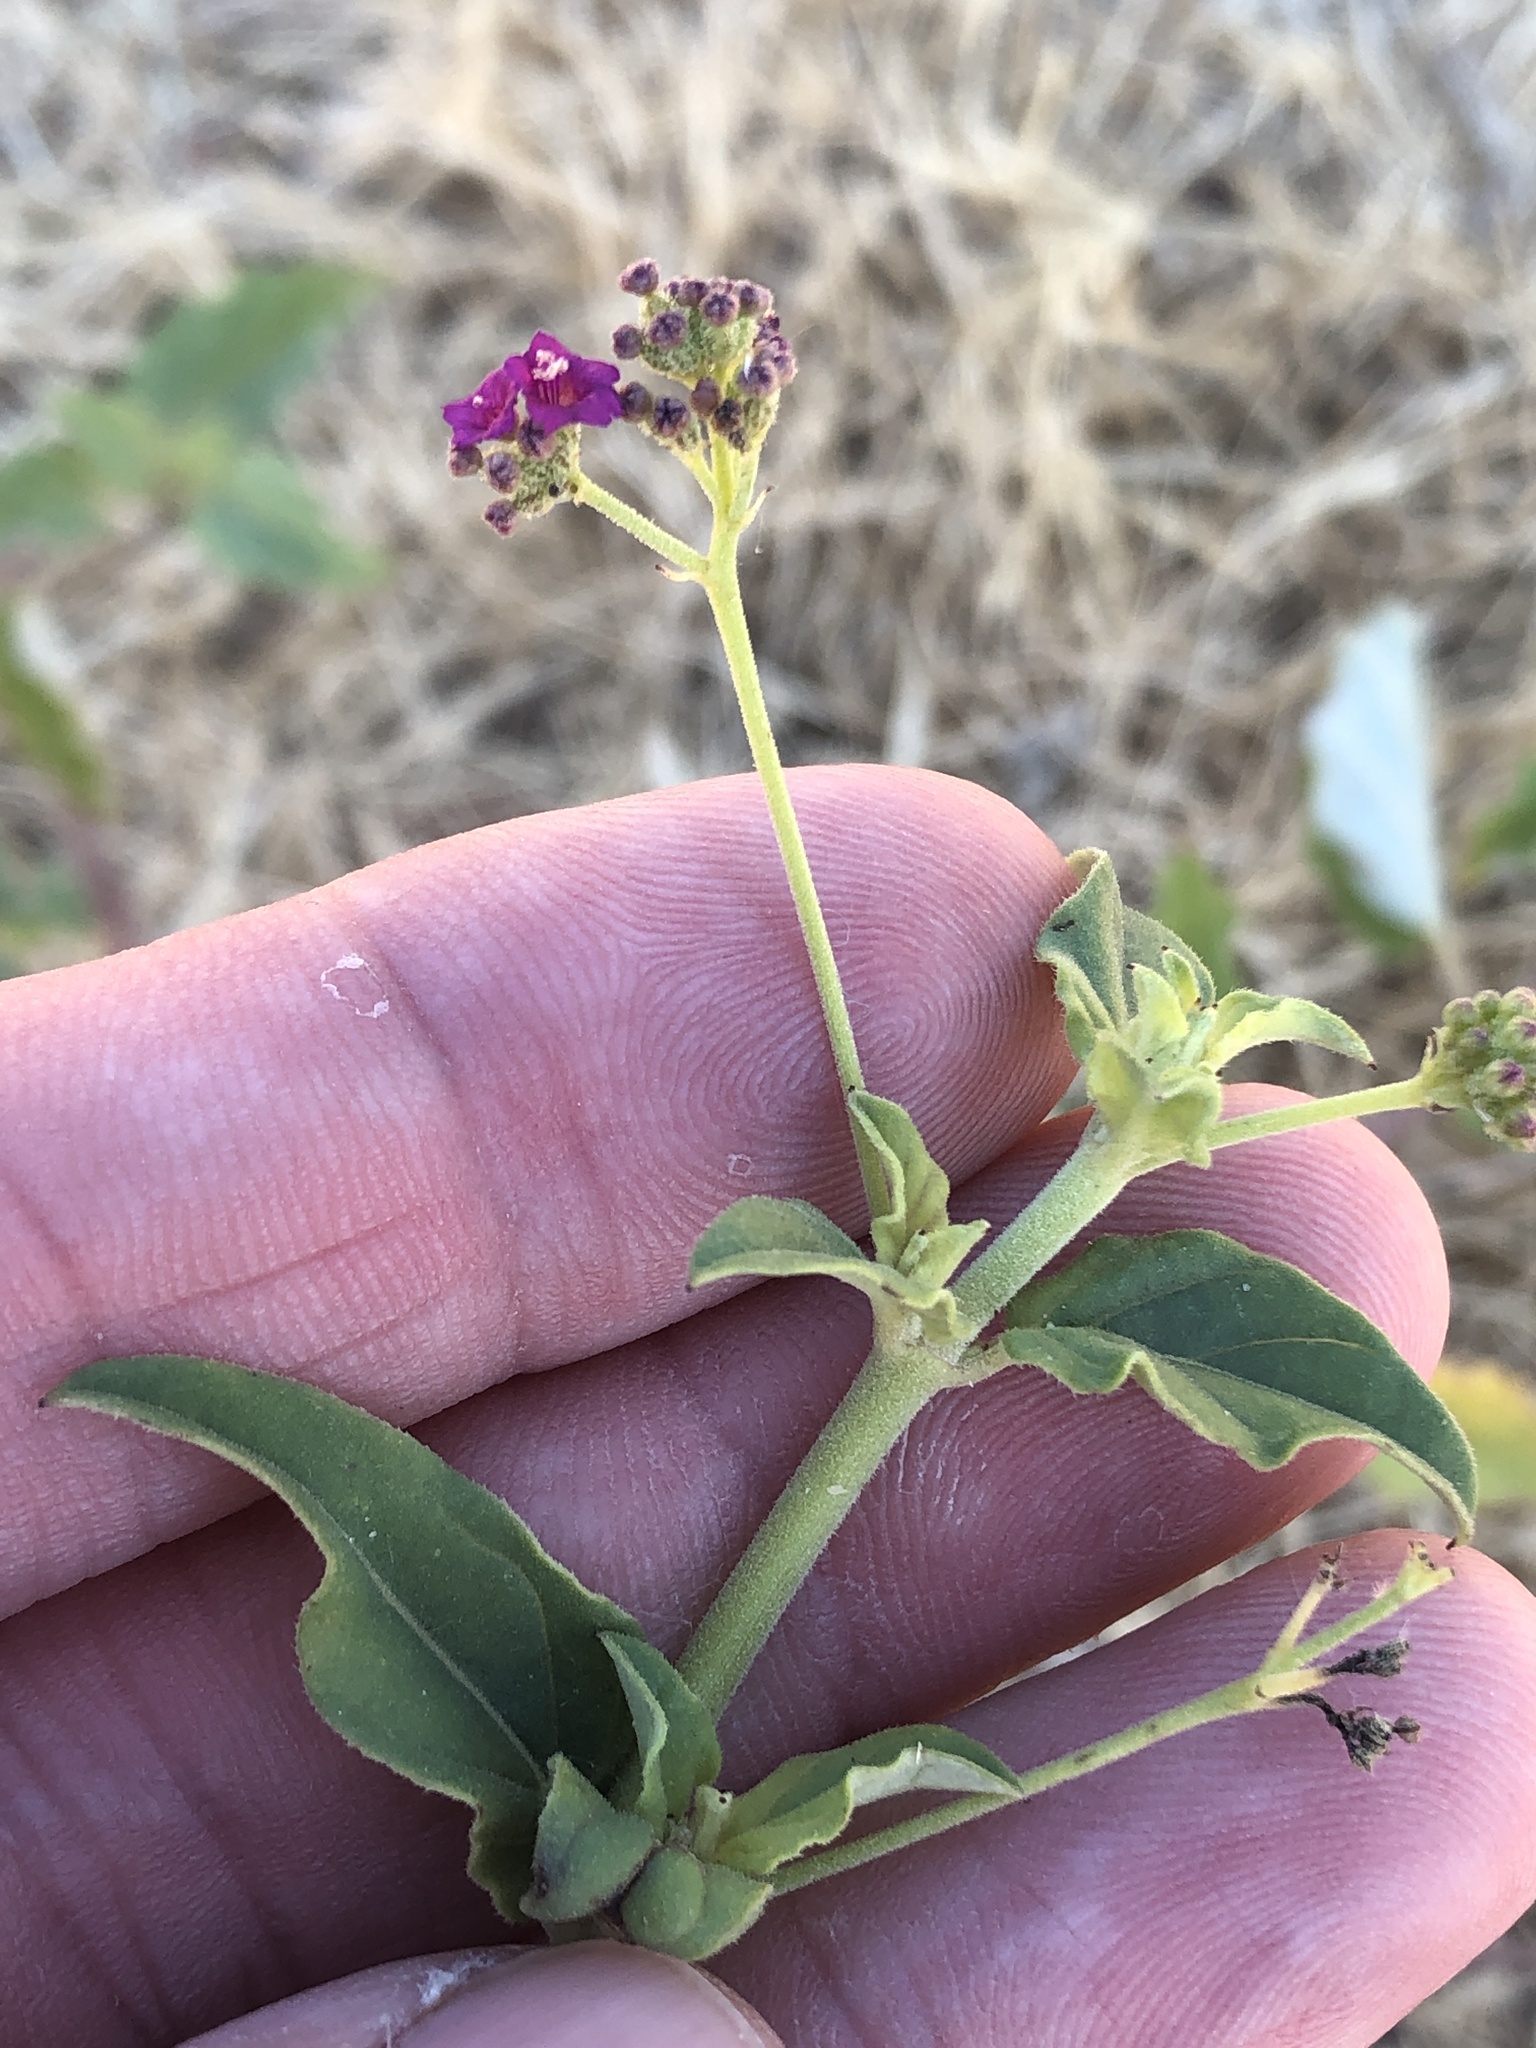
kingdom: Plantae
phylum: Tracheophyta
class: Magnoliopsida
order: Caryophyllales
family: Nyctaginaceae
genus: Boerhavia
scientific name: Boerhavia coccinea
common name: Scarlet spiderling
